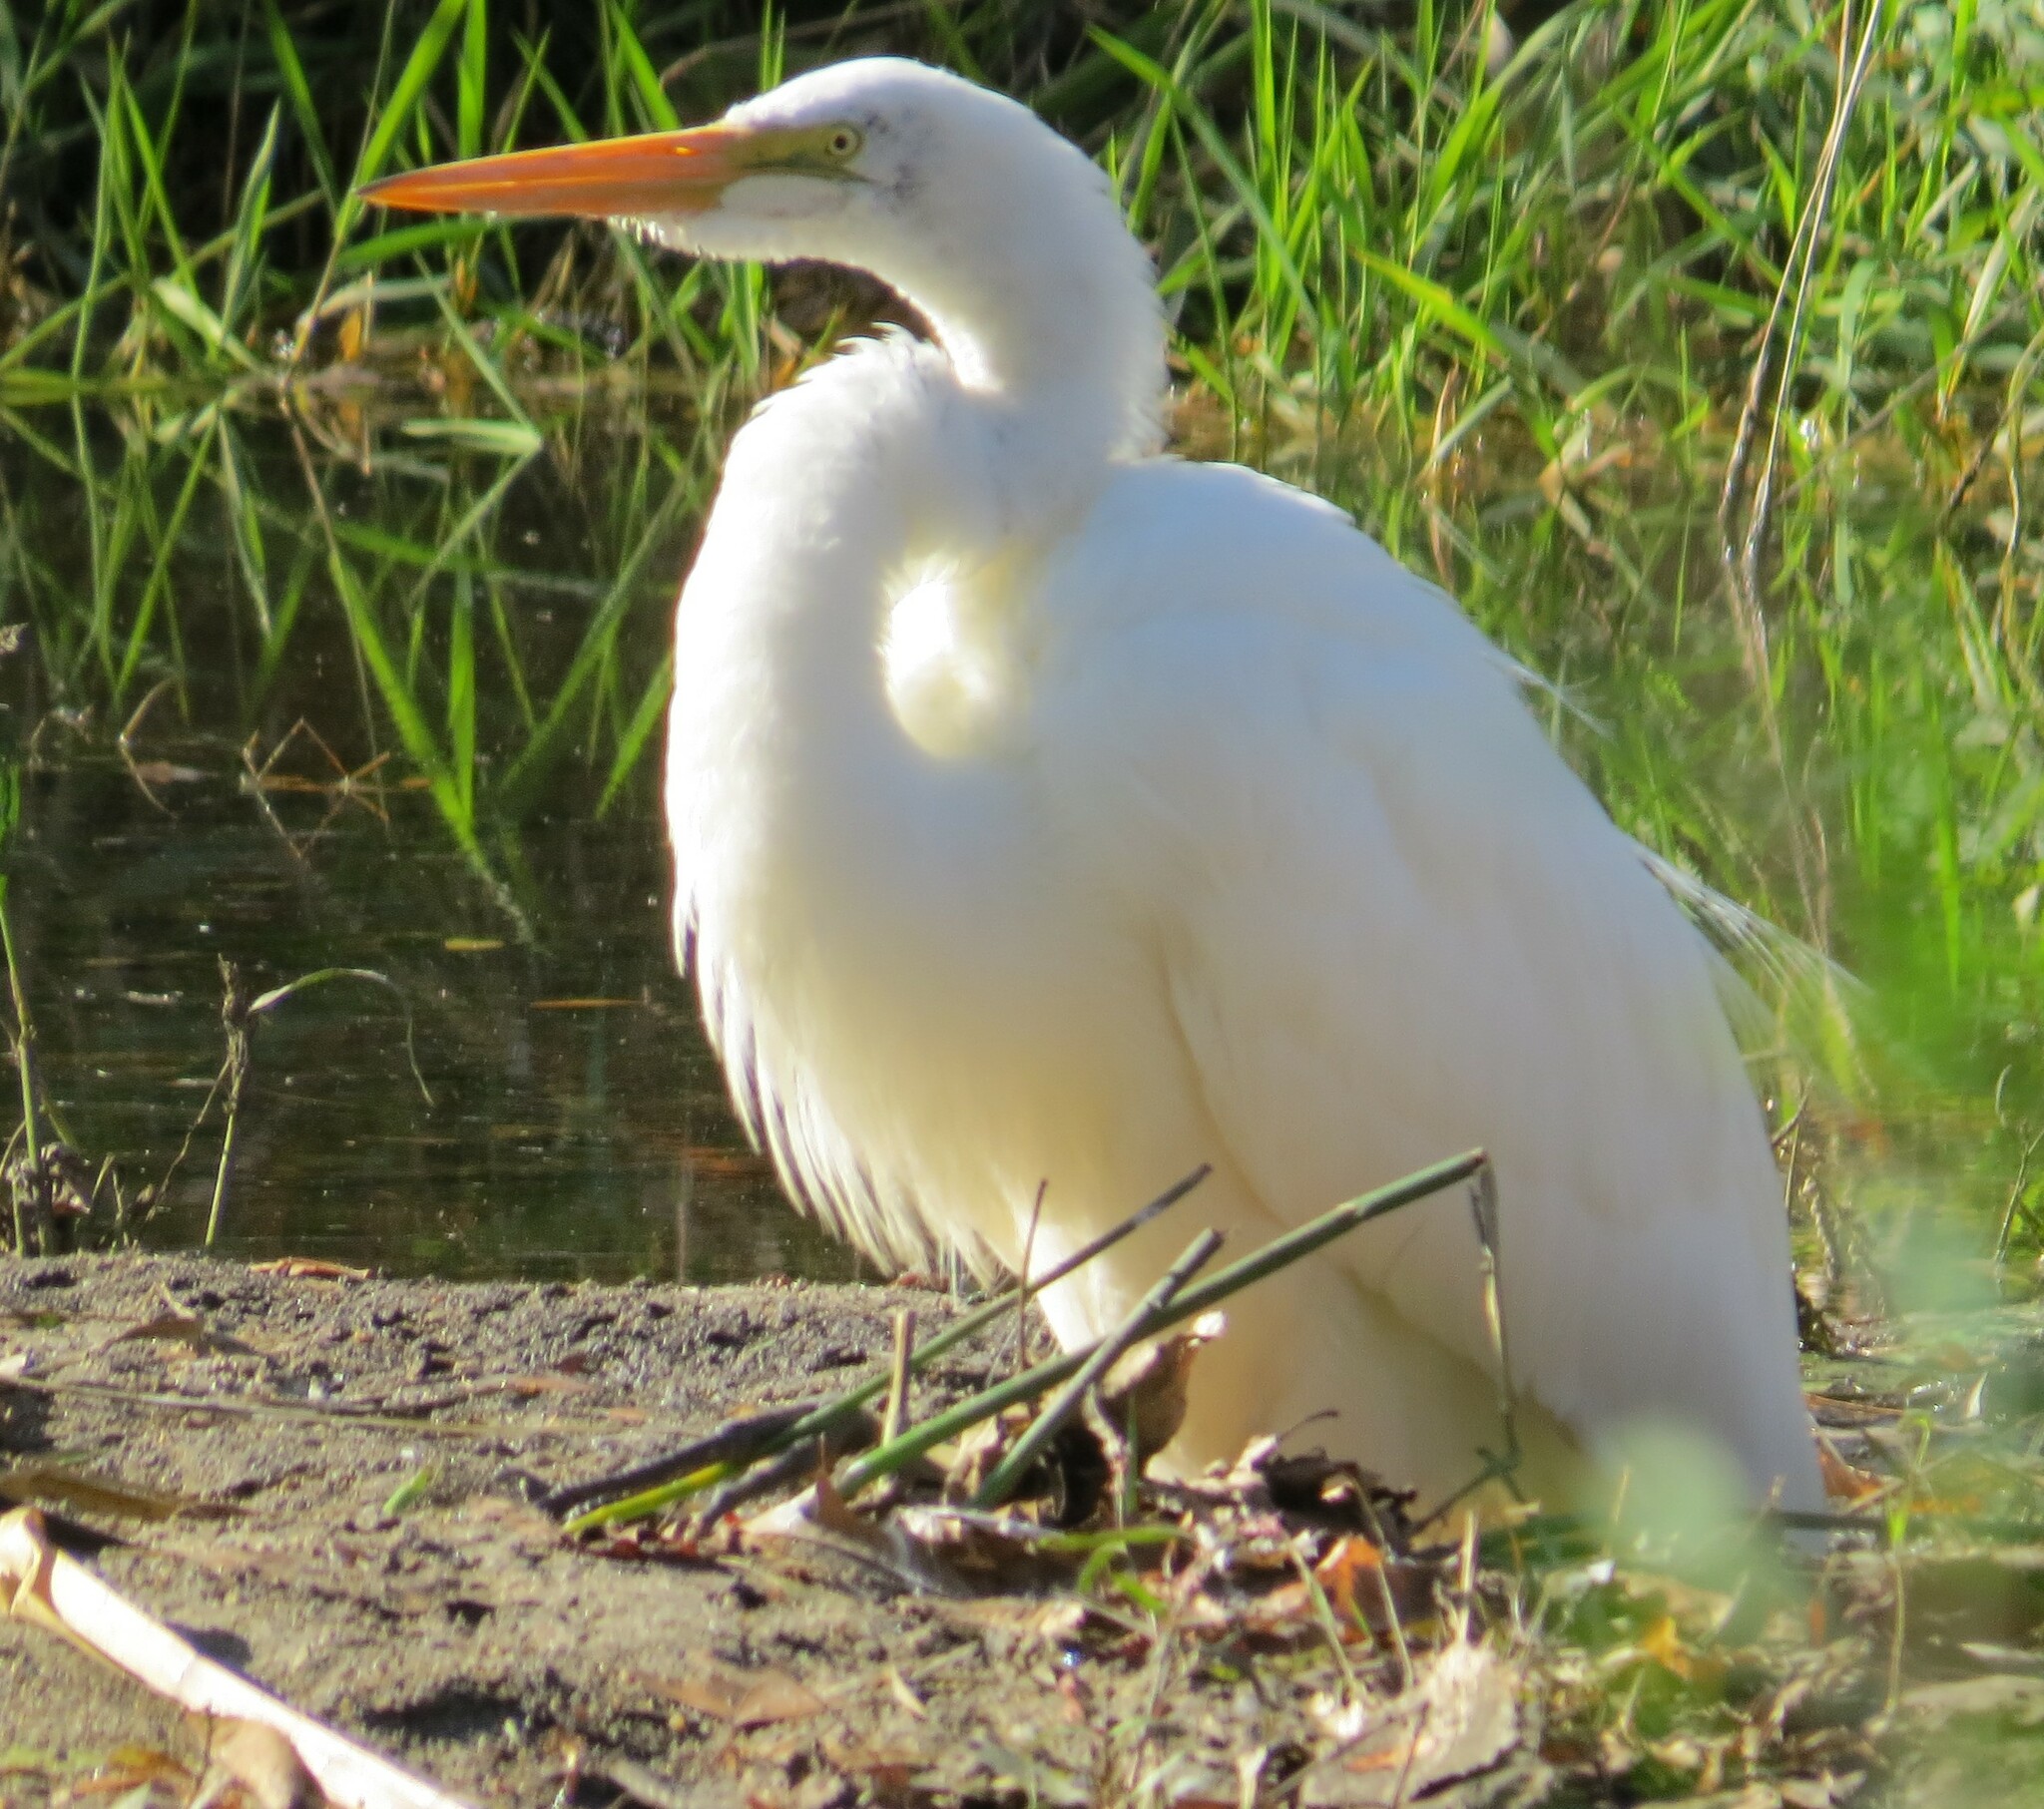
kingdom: Animalia
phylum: Chordata
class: Aves
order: Pelecaniformes
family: Ardeidae
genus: Ardea
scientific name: Ardea alba
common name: Great egret
